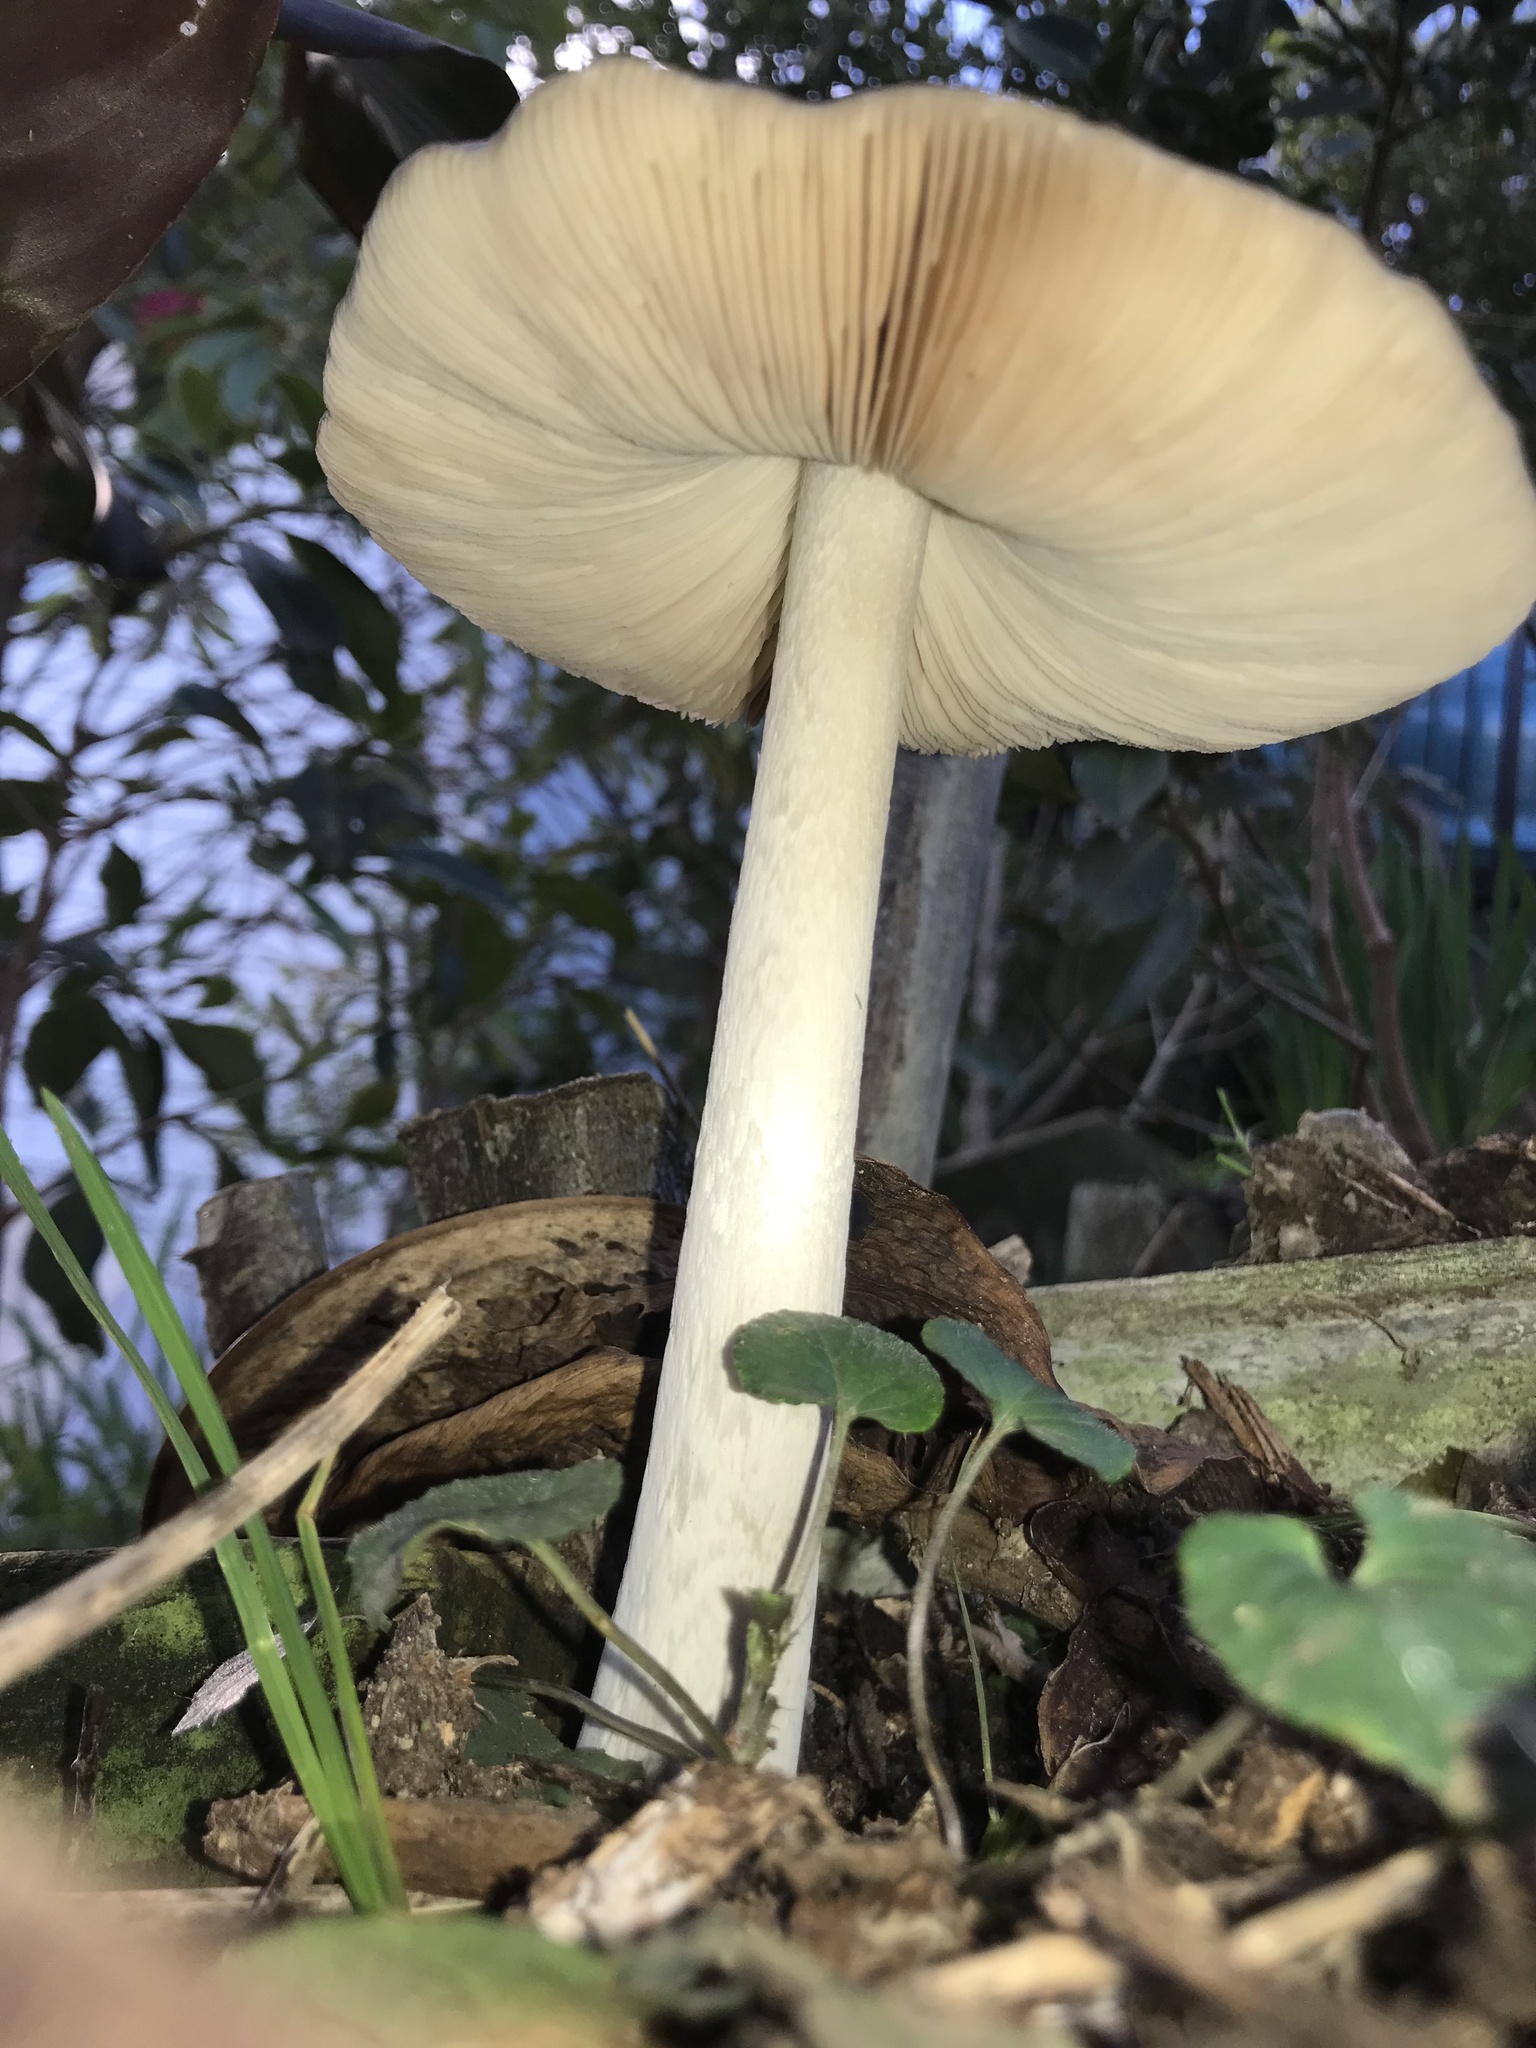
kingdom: Fungi
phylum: Basidiomycota
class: Agaricomycetes
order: Agaricales
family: Pluteaceae
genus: Volvopluteus
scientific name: Volvopluteus gloiocephalus
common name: Stubble rosegill
